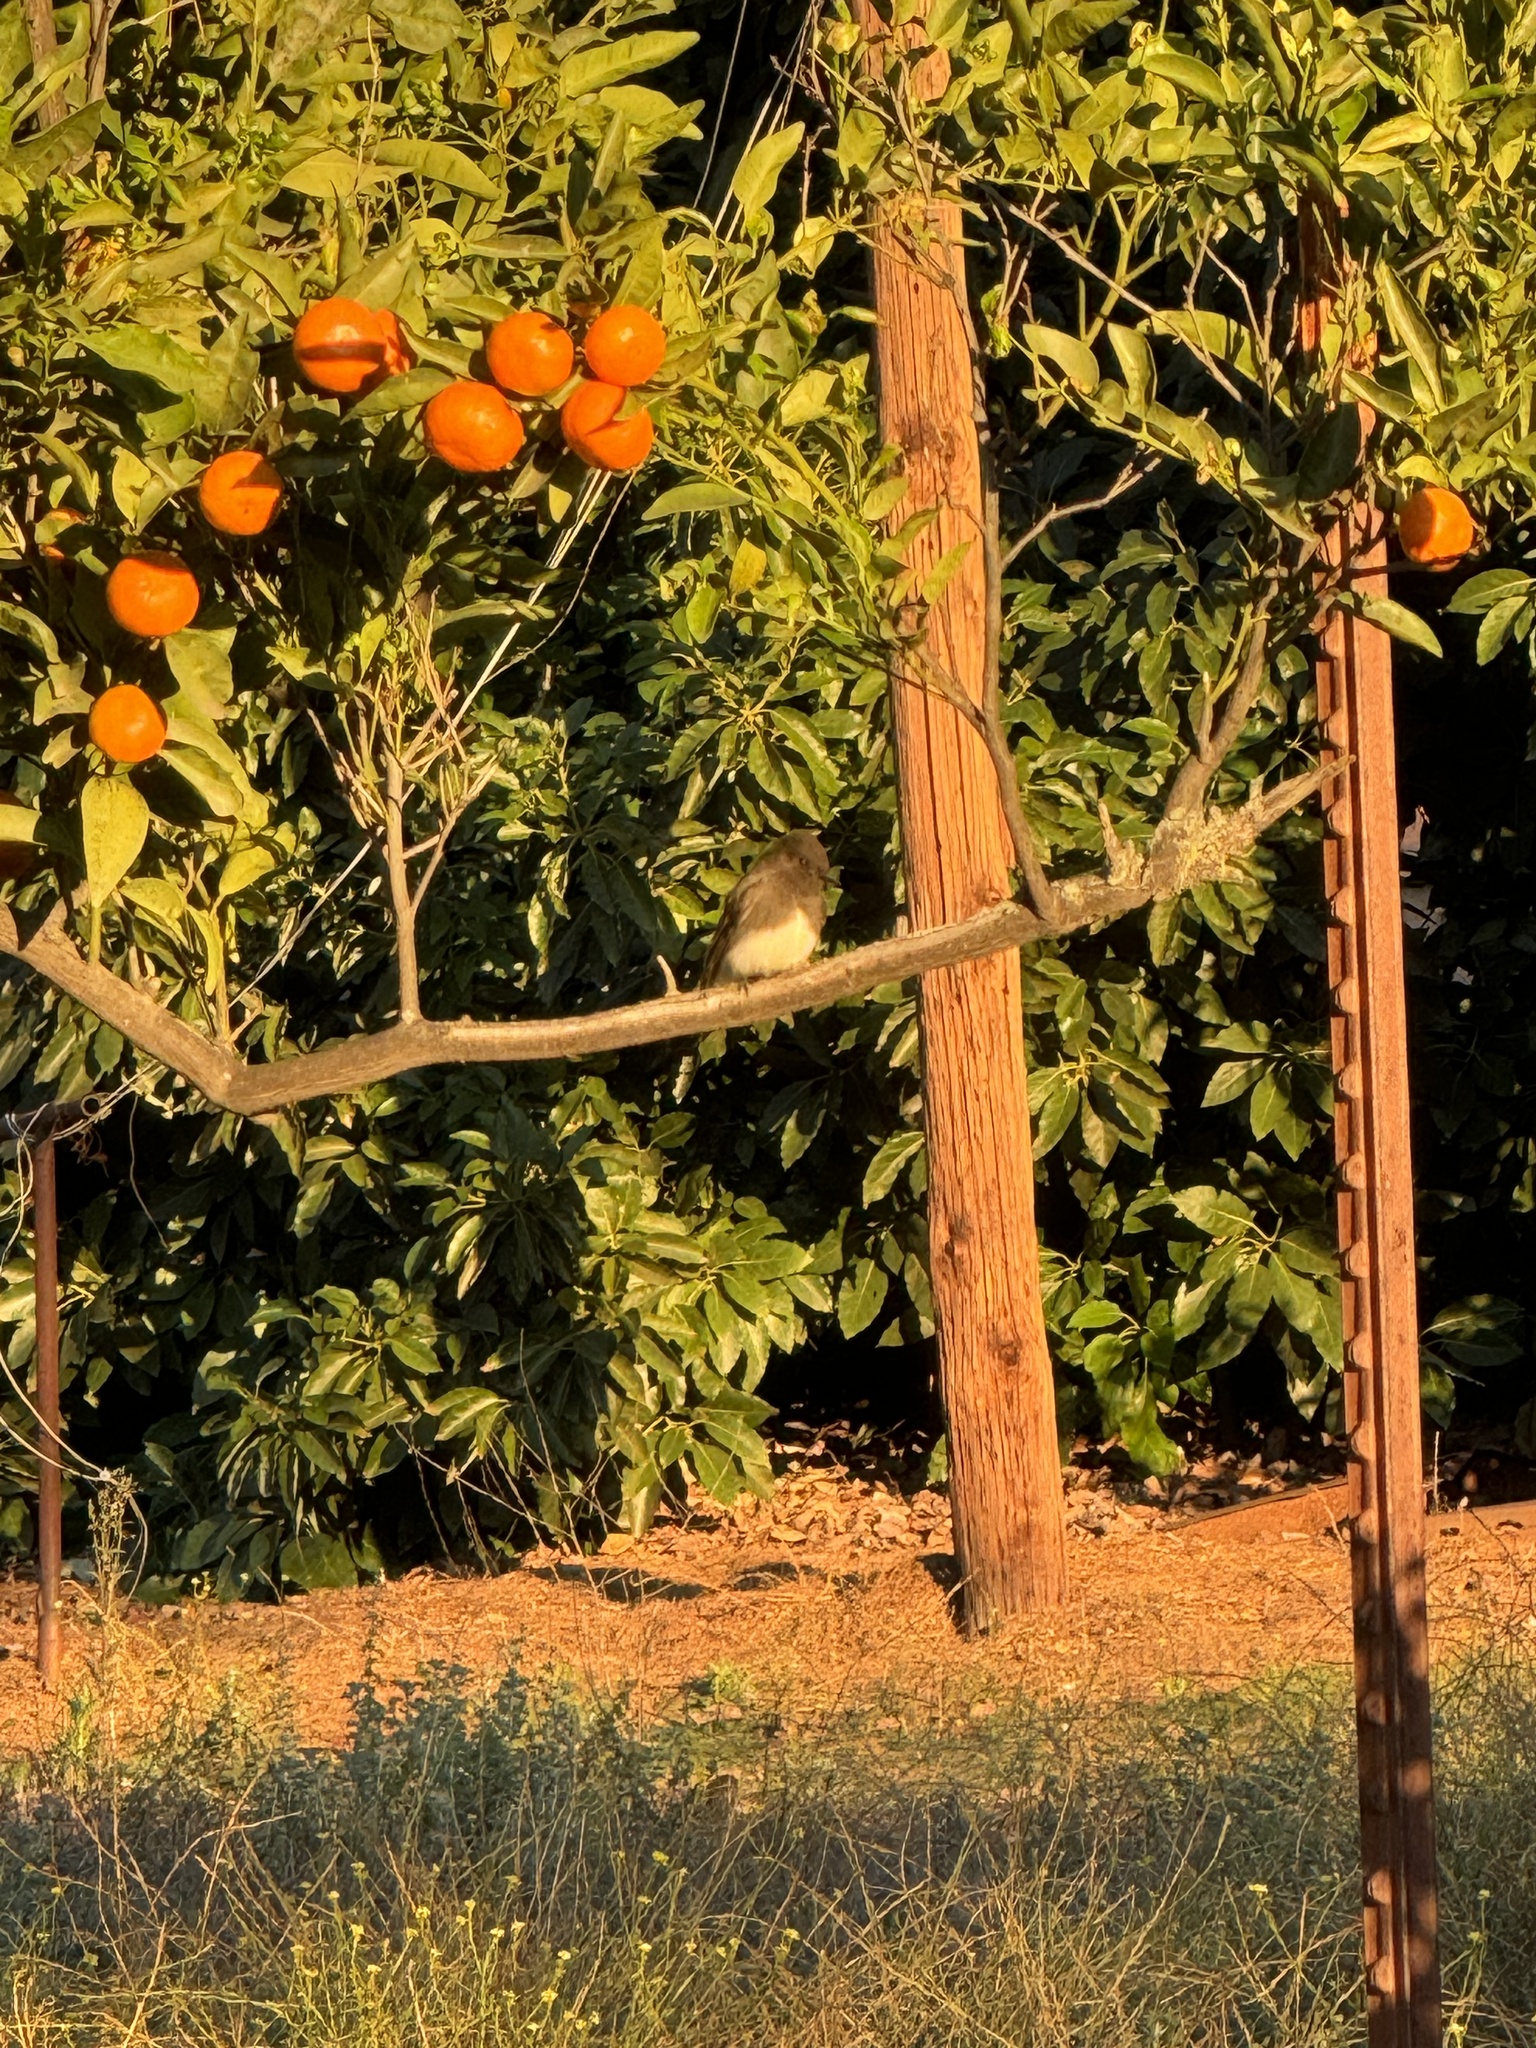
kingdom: Animalia
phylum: Chordata
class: Aves
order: Passeriformes
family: Tyrannidae
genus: Sayornis
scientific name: Sayornis nigricans
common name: Black phoebe
